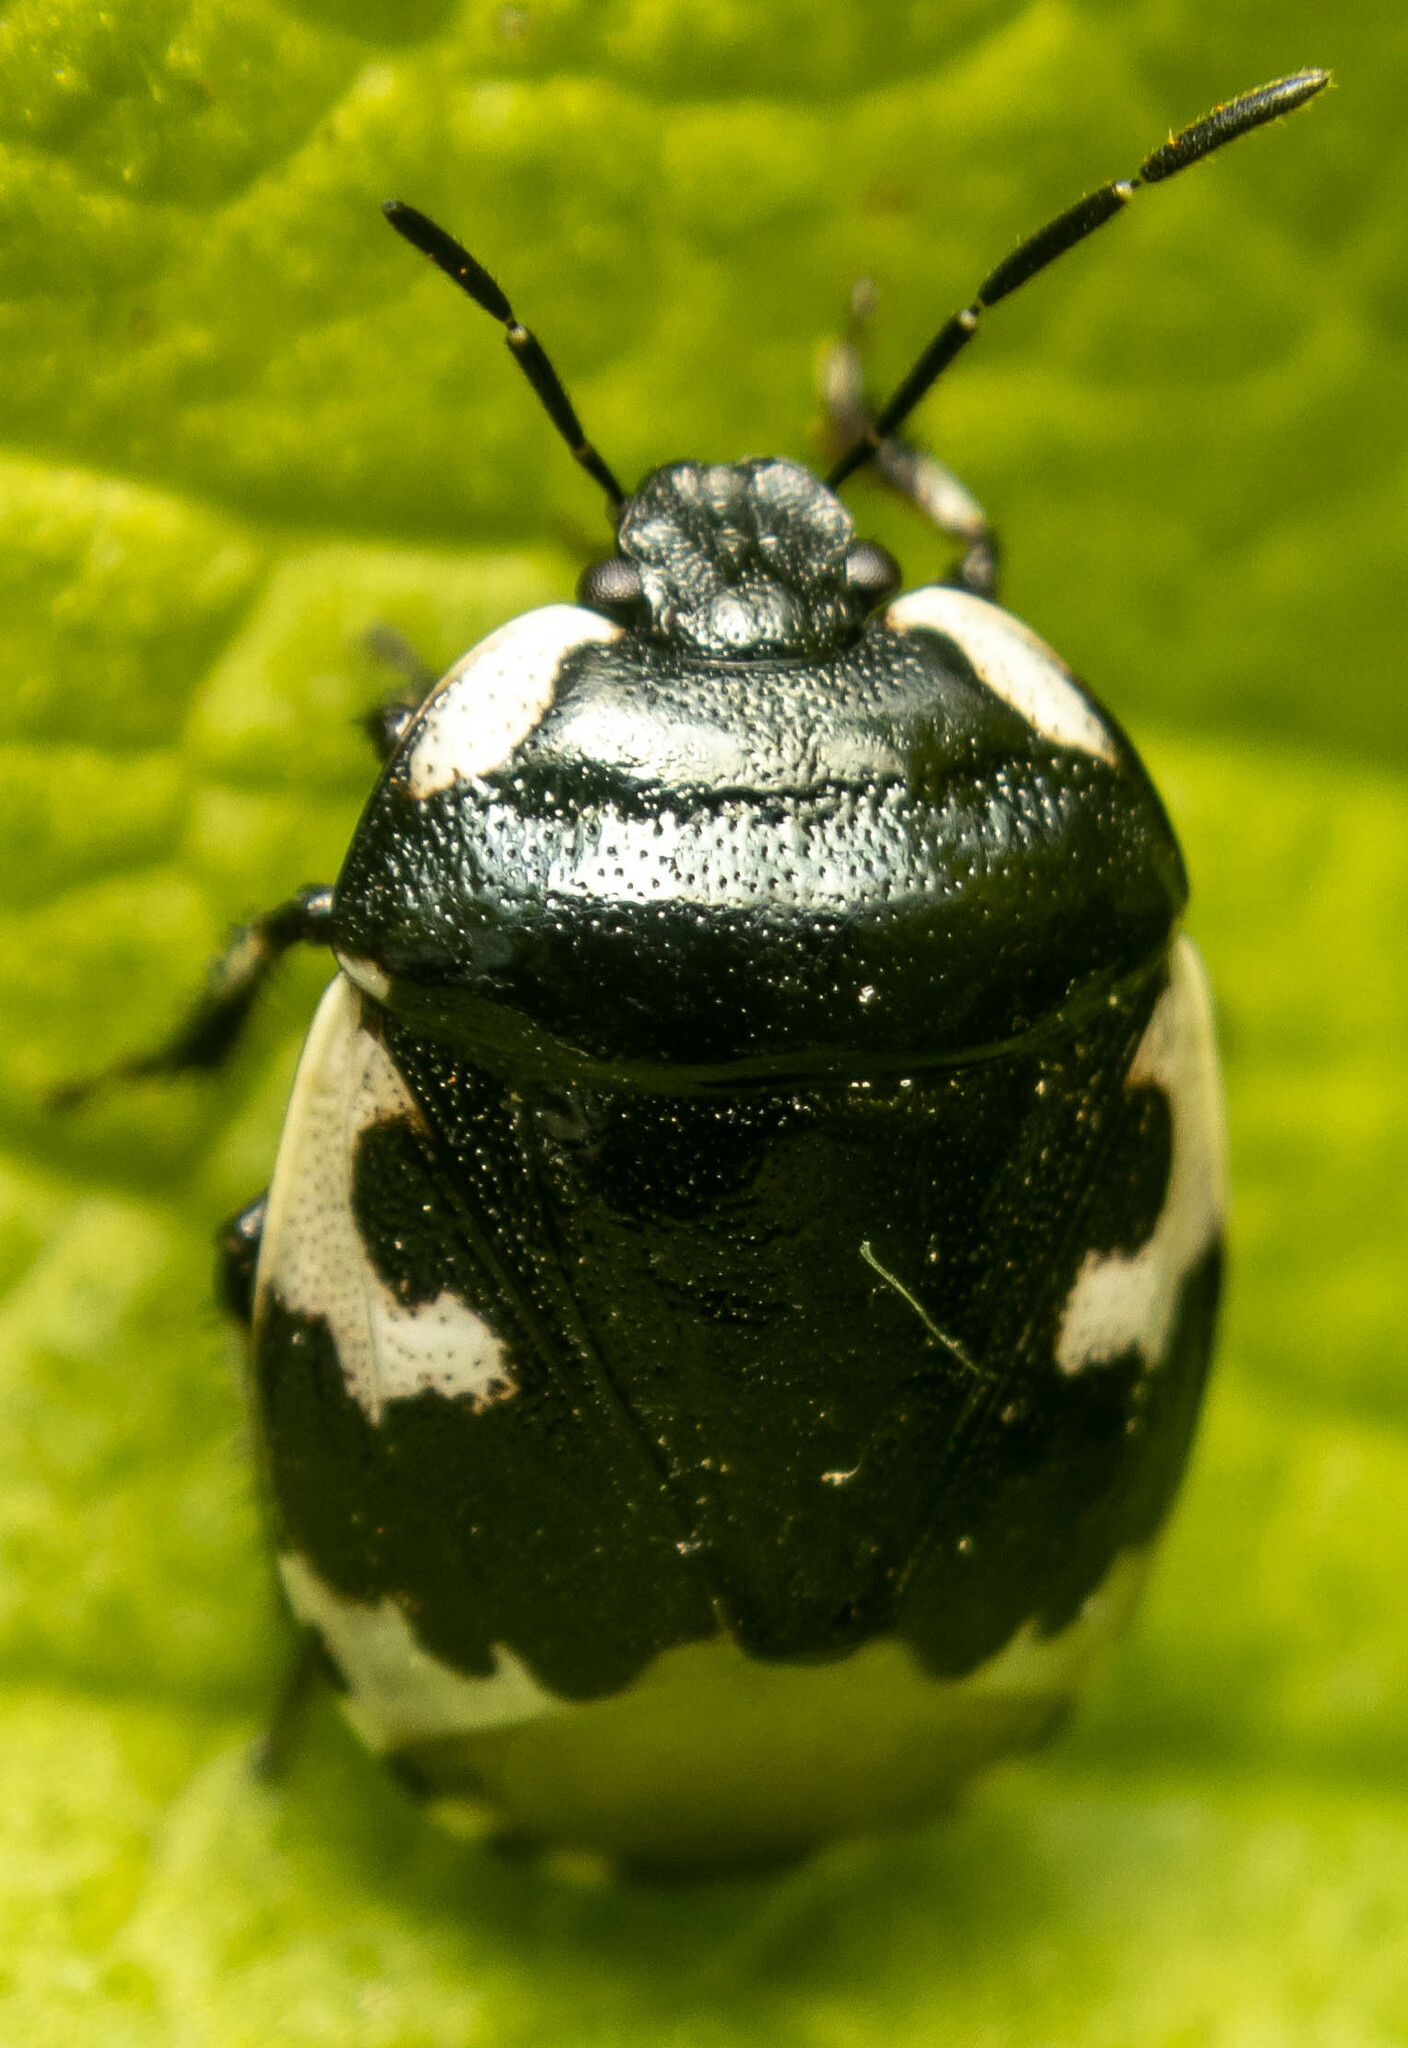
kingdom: Animalia
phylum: Arthropoda
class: Insecta
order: Hemiptera
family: Cydnidae
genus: Tritomegas
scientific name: Tritomegas bicolor
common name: Pied shieldbug
